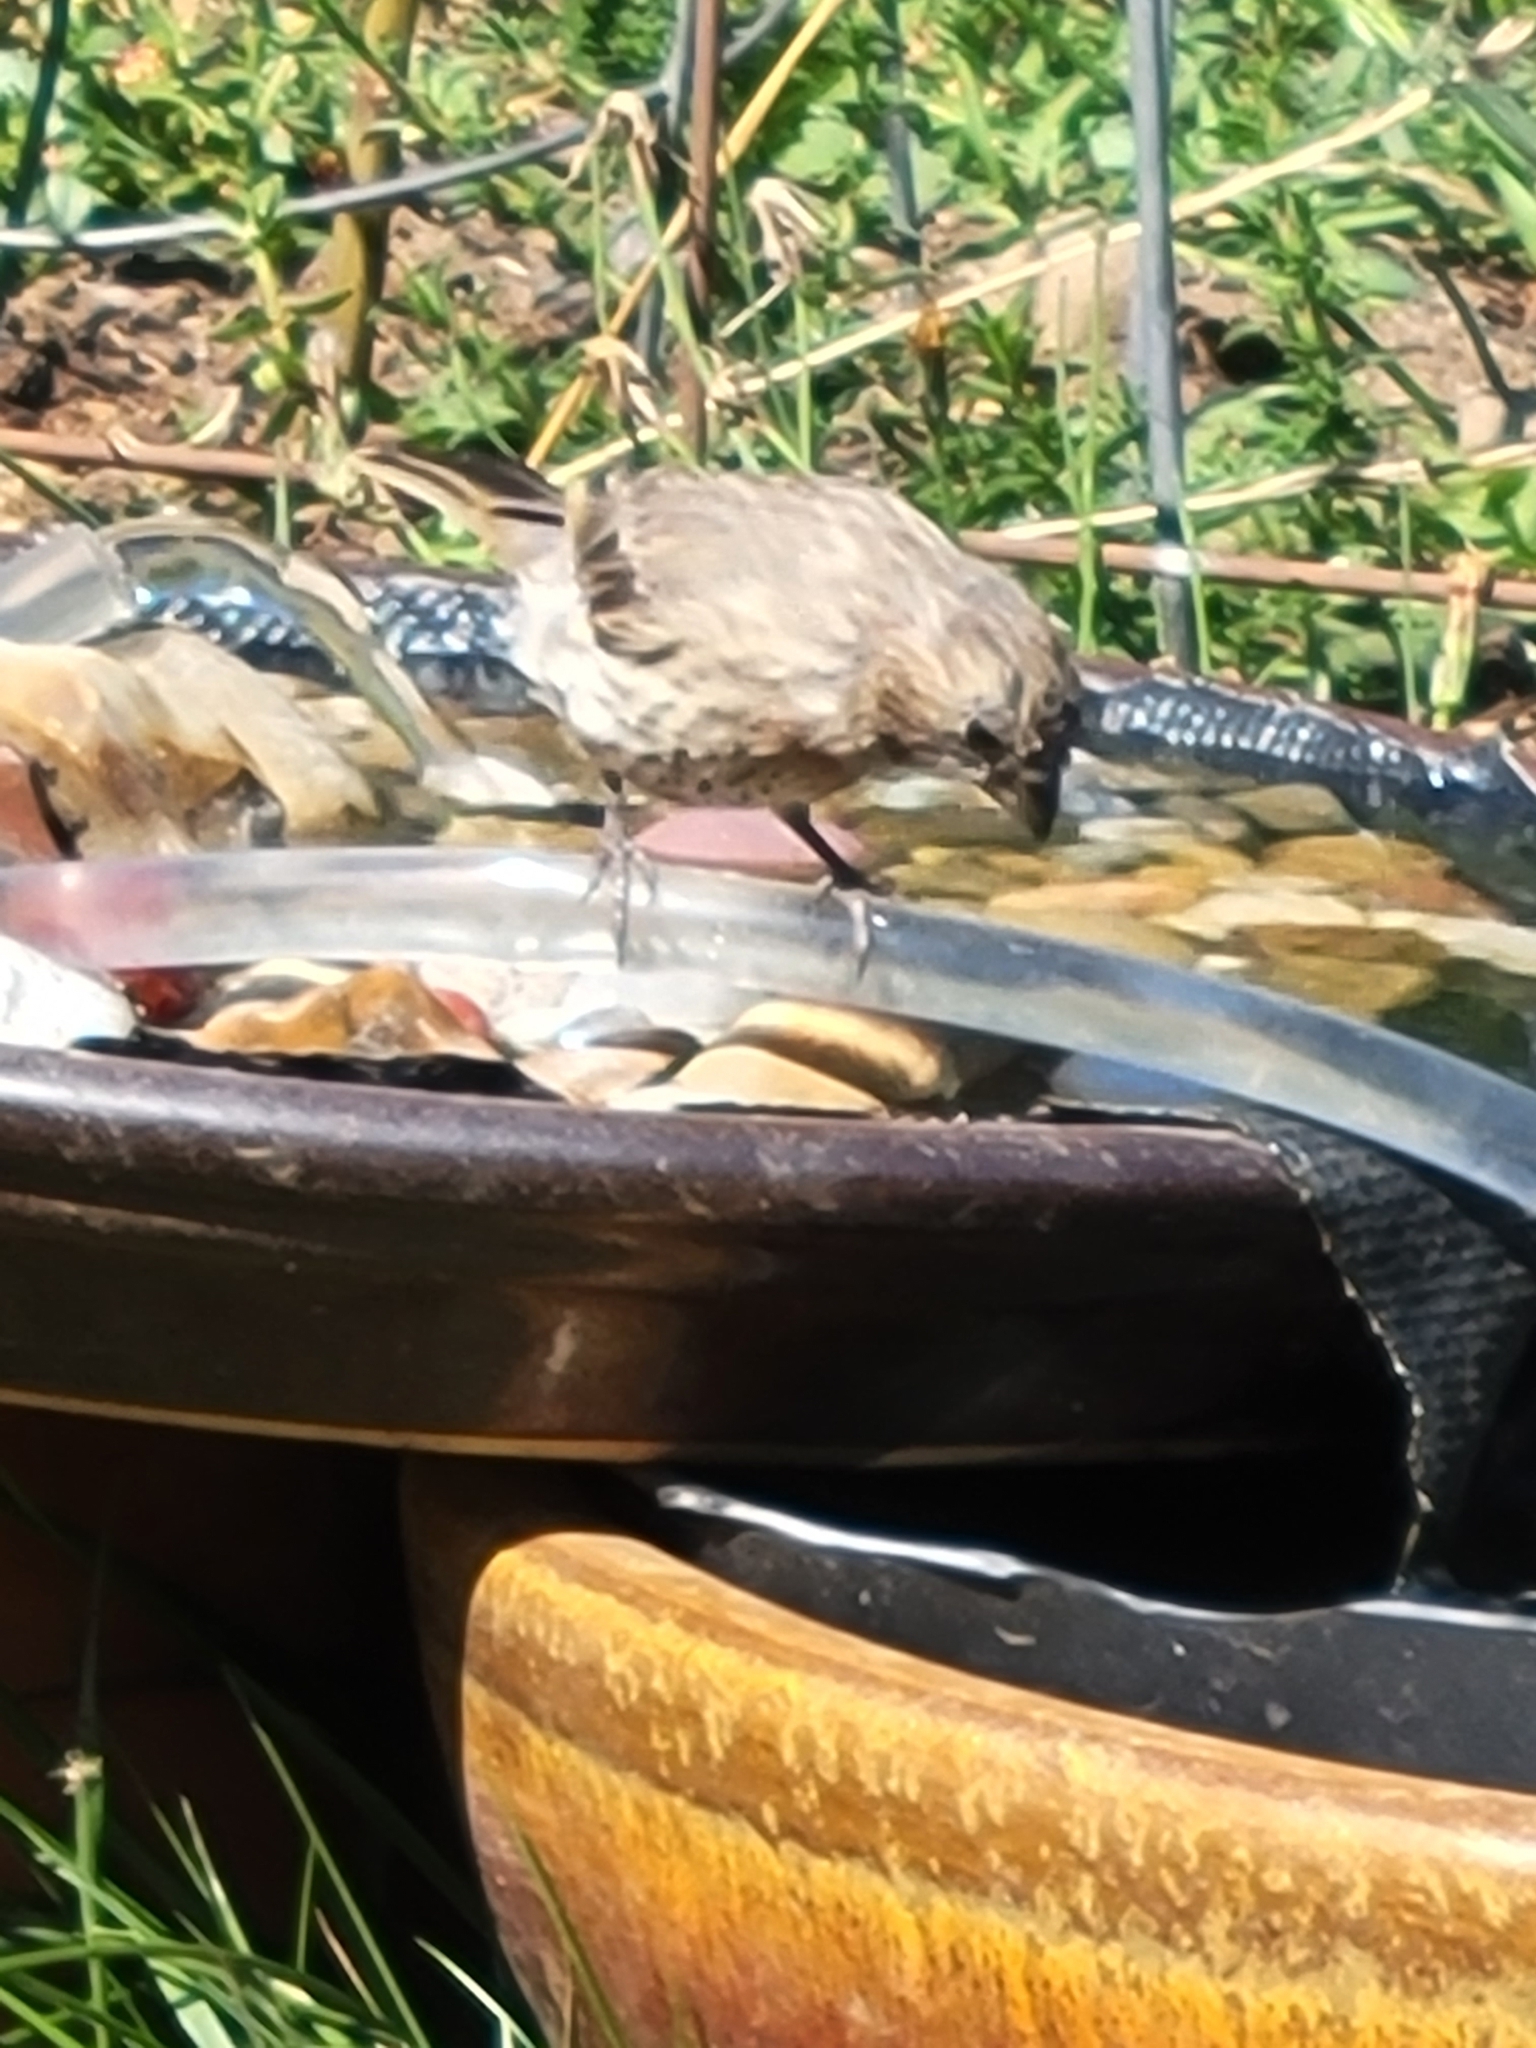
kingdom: Animalia
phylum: Chordata
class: Aves
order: Passeriformes
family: Fringillidae
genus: Haemorhous
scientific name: Haemorhous mexicanus
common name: House finch
